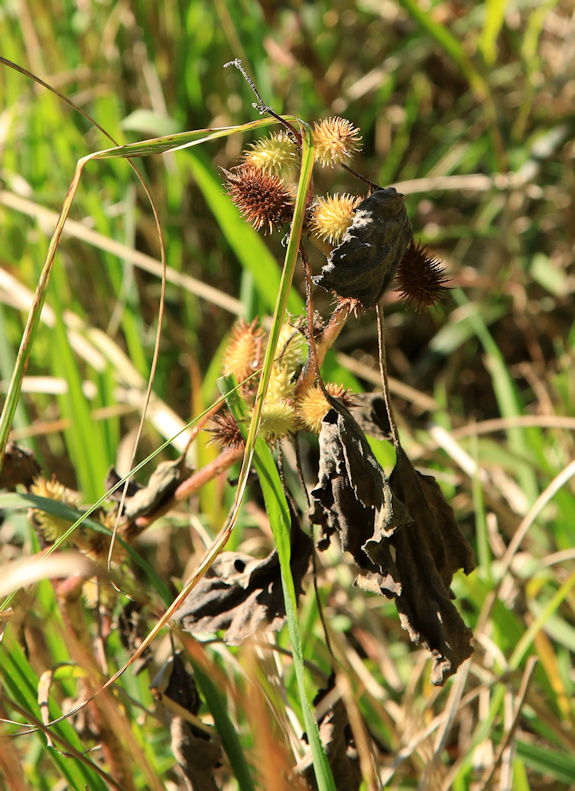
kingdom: Plantae
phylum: Tracheophyta
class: Magnoliopsida
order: Asterales
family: Asteraceae
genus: Xanthium
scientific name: Xanthium strumarium
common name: Rough cocklebur
